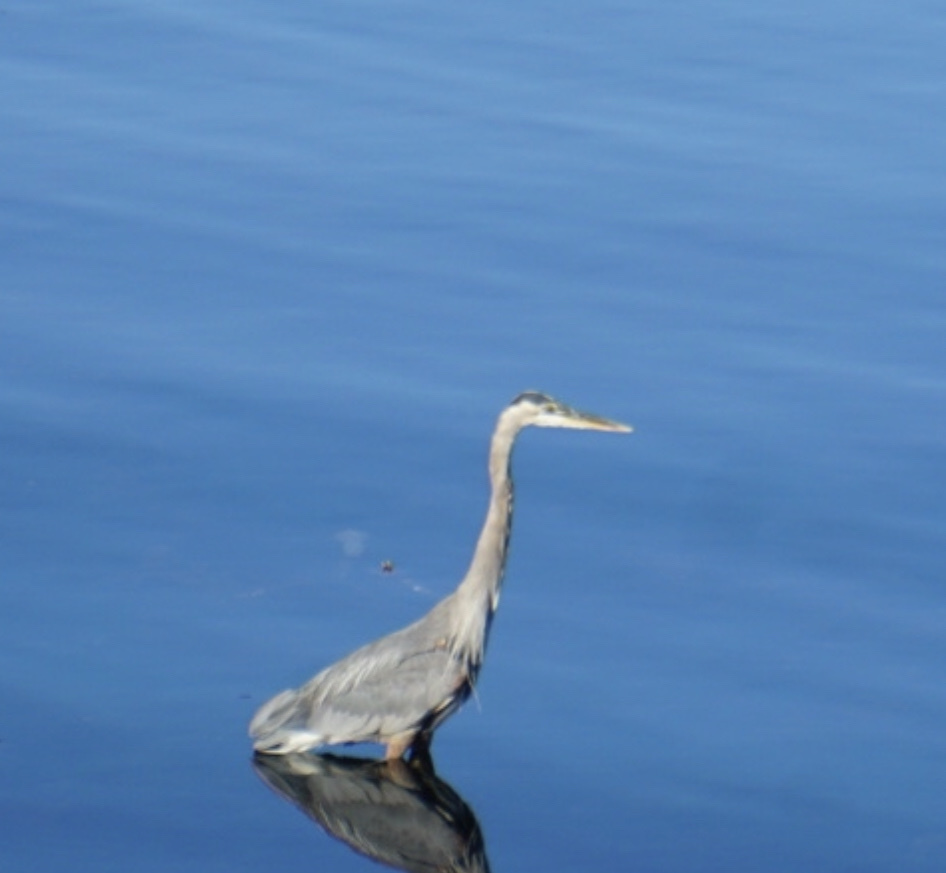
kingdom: Animalia
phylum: Chordata
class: Aves
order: Pelecaniformes
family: Ardeidae
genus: Ardea
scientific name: Ardea herodias
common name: Great blue heron
